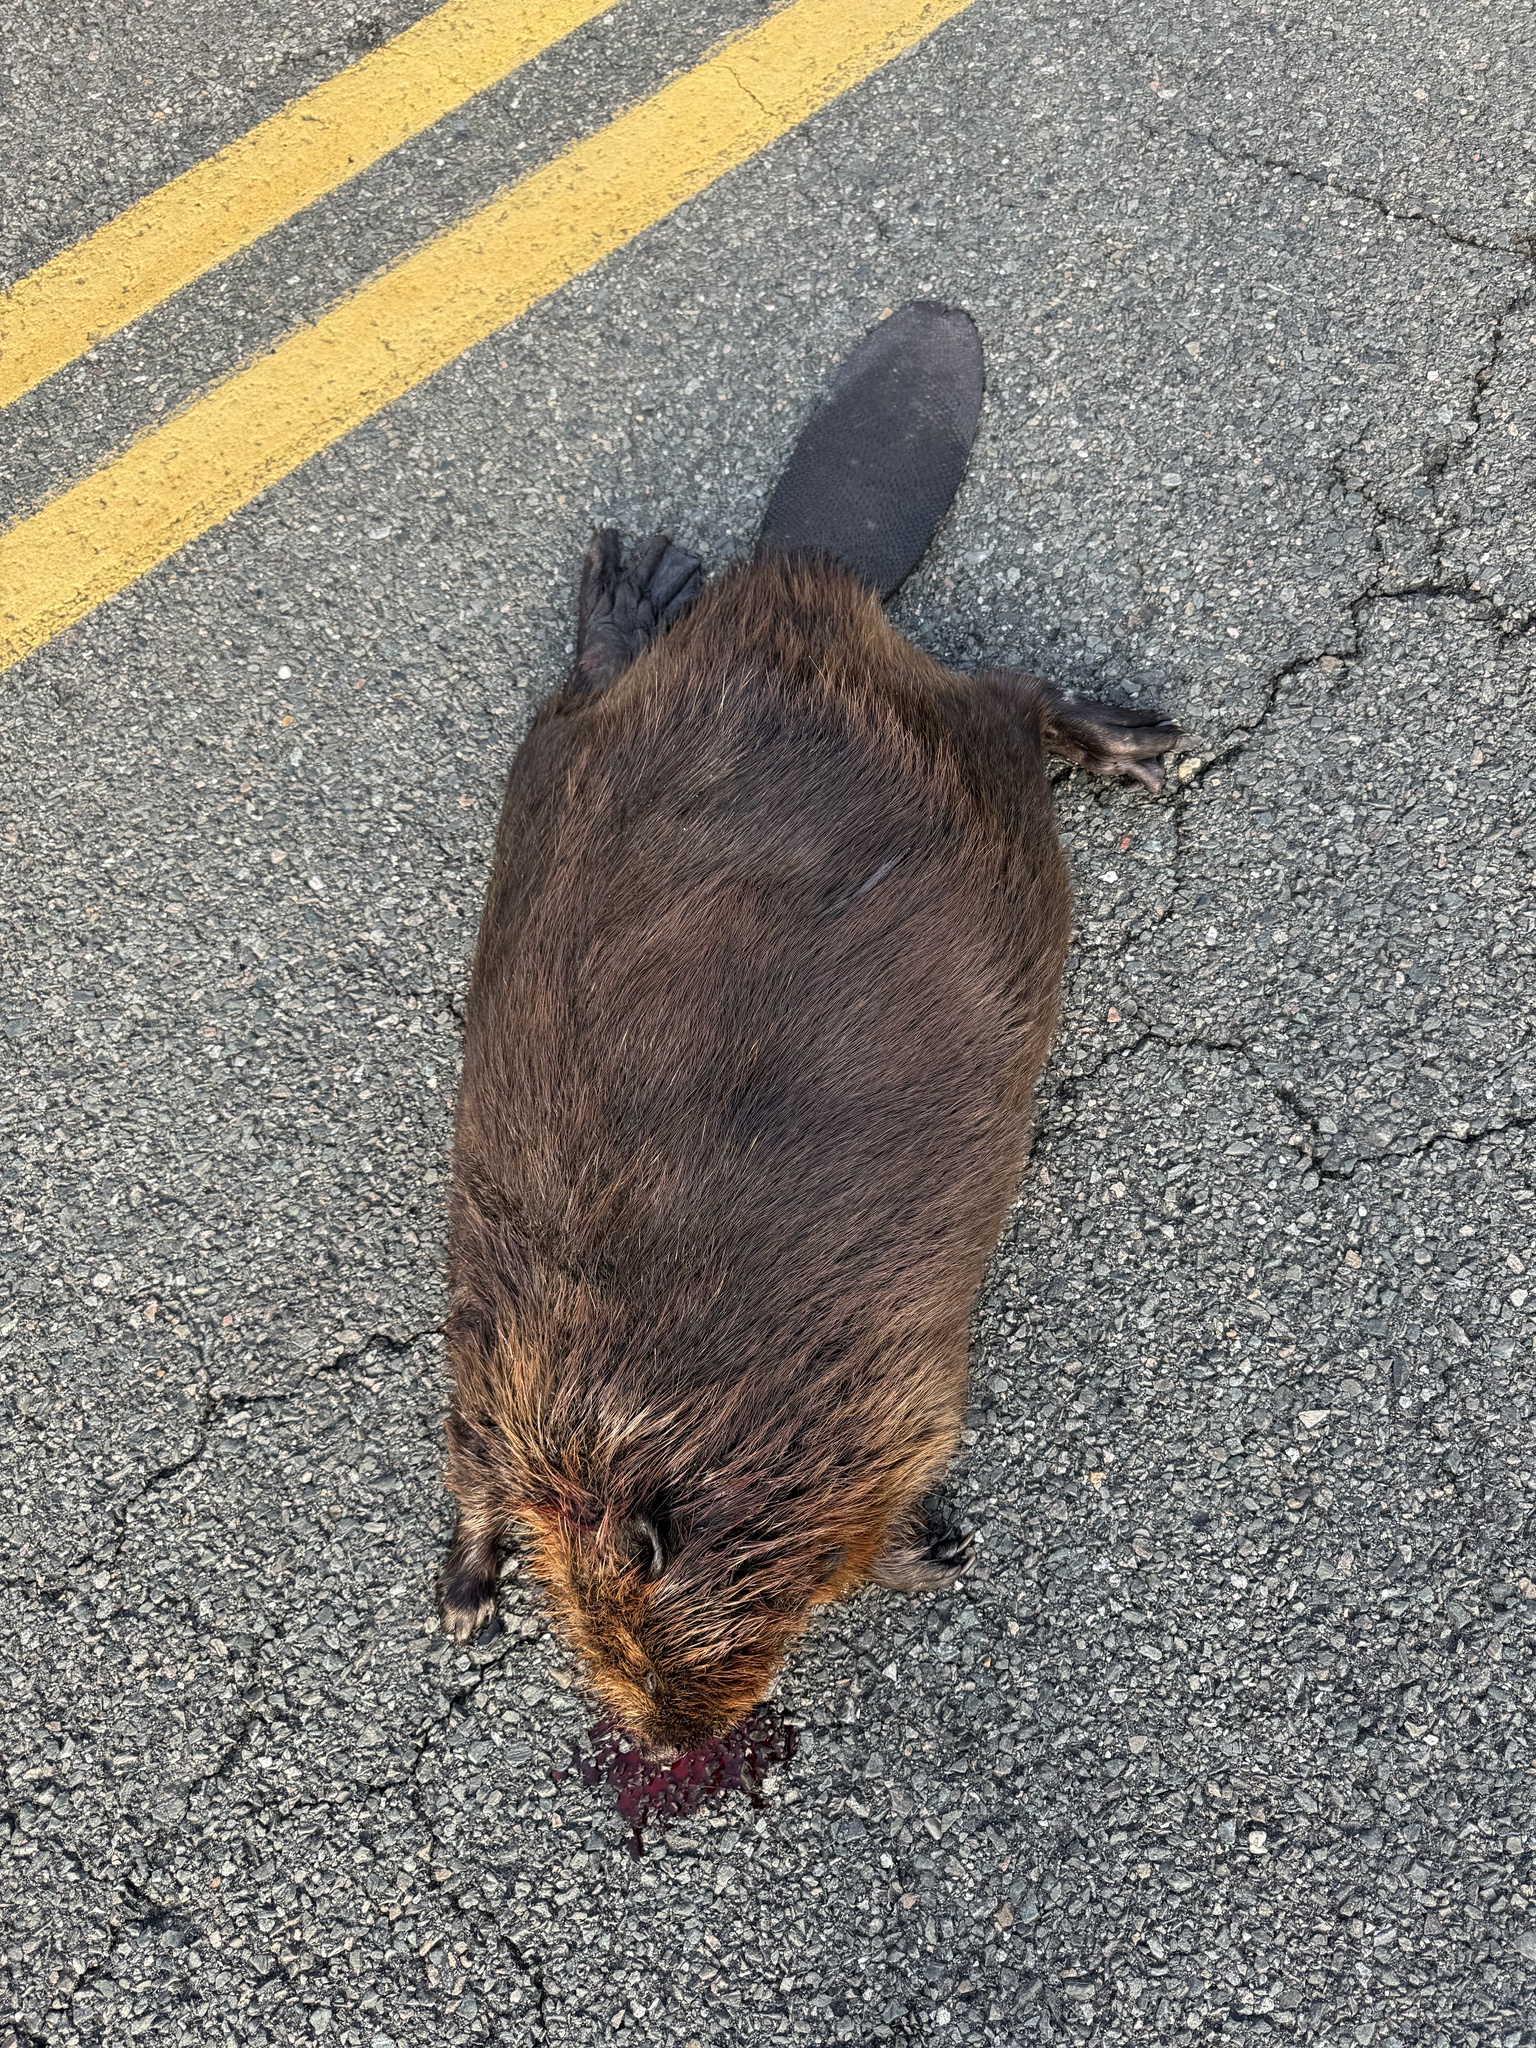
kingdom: Animalia
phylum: Chordata
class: Mammalia
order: Rodentia
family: Castoridae
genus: Castor
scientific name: Castor canadensis
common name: American beaver
